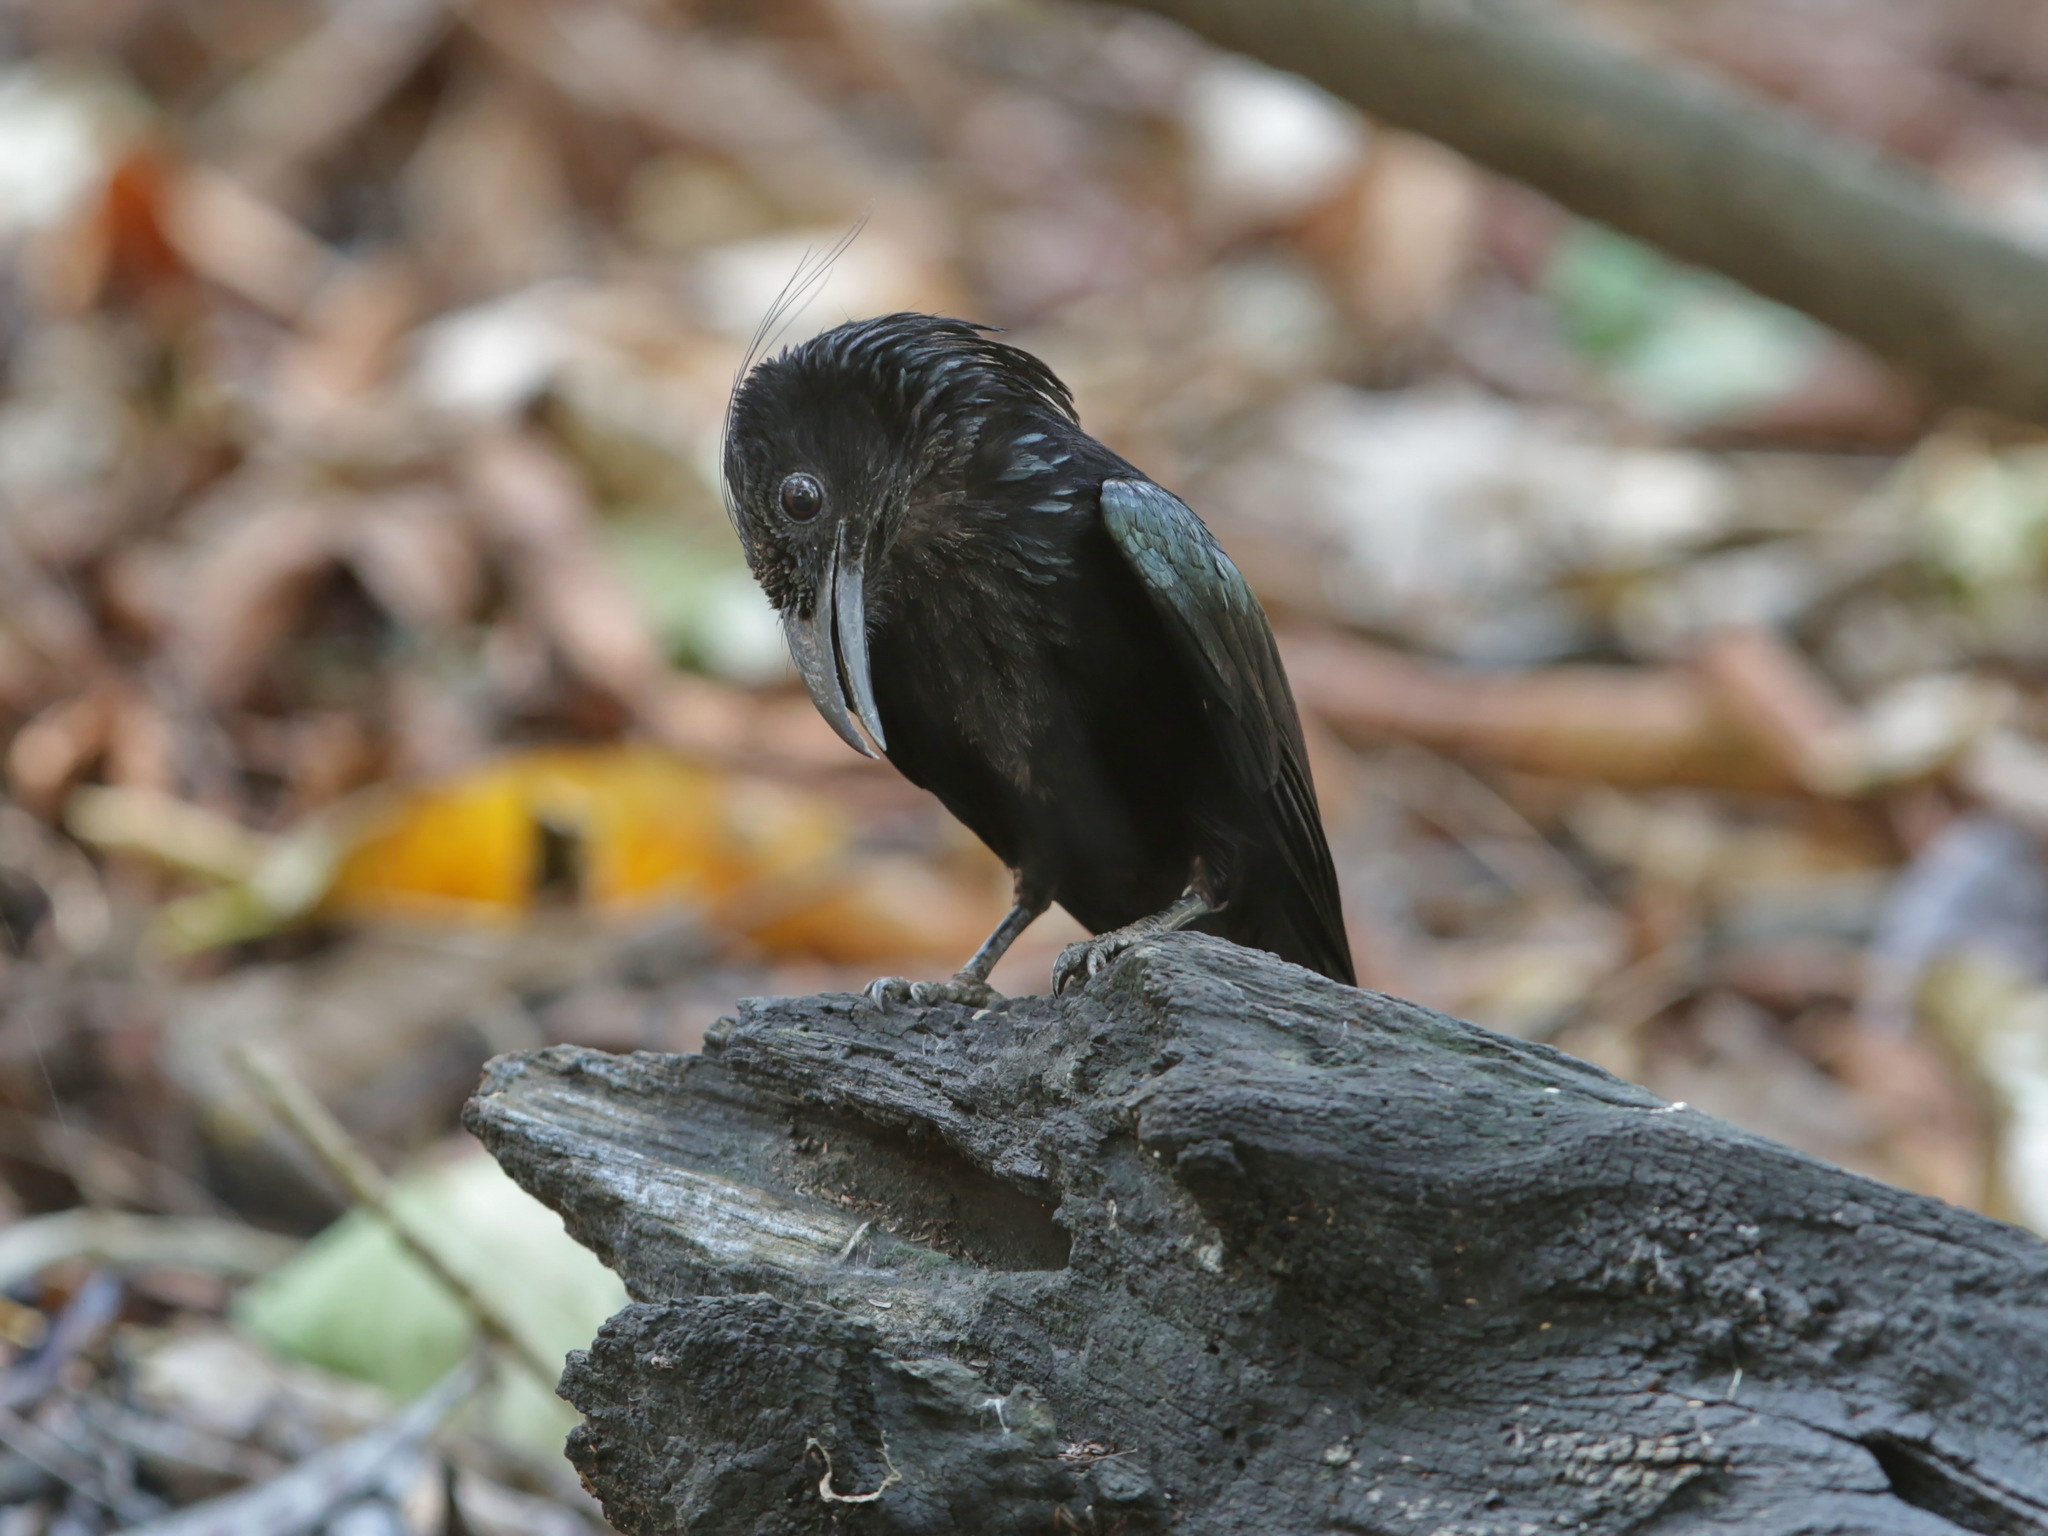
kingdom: Animalia
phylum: Chordata
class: Aves
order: Passeriformes
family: Dicruridae
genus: Dicrurus
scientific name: Dicrurus hottentottus
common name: Hair-crested drongo
